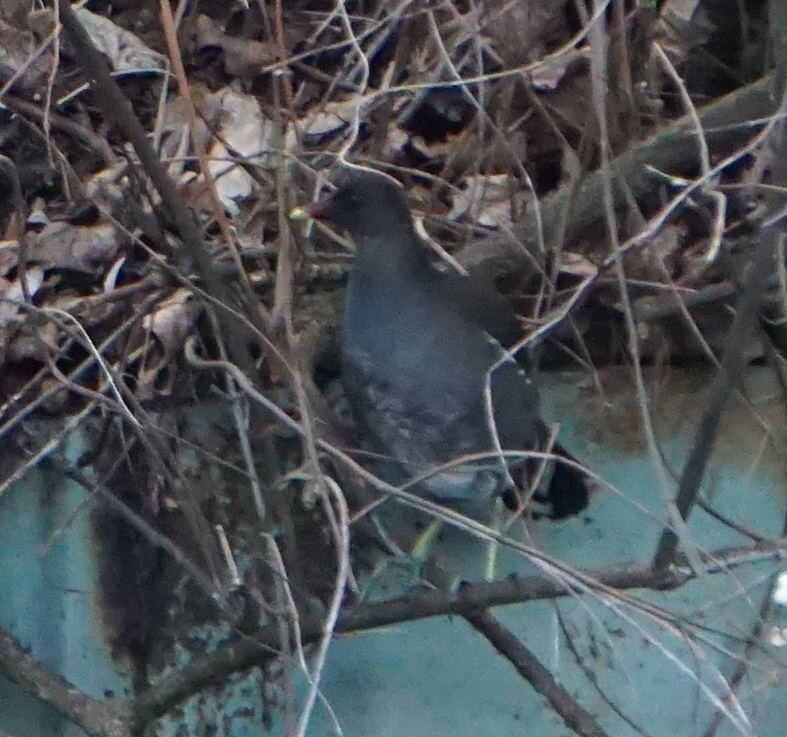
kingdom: Animalia
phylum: Chordata
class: Aves
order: Gruiformes
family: Rallidae
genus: Gallinula
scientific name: Gallinula chloropus
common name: Common moorhen
